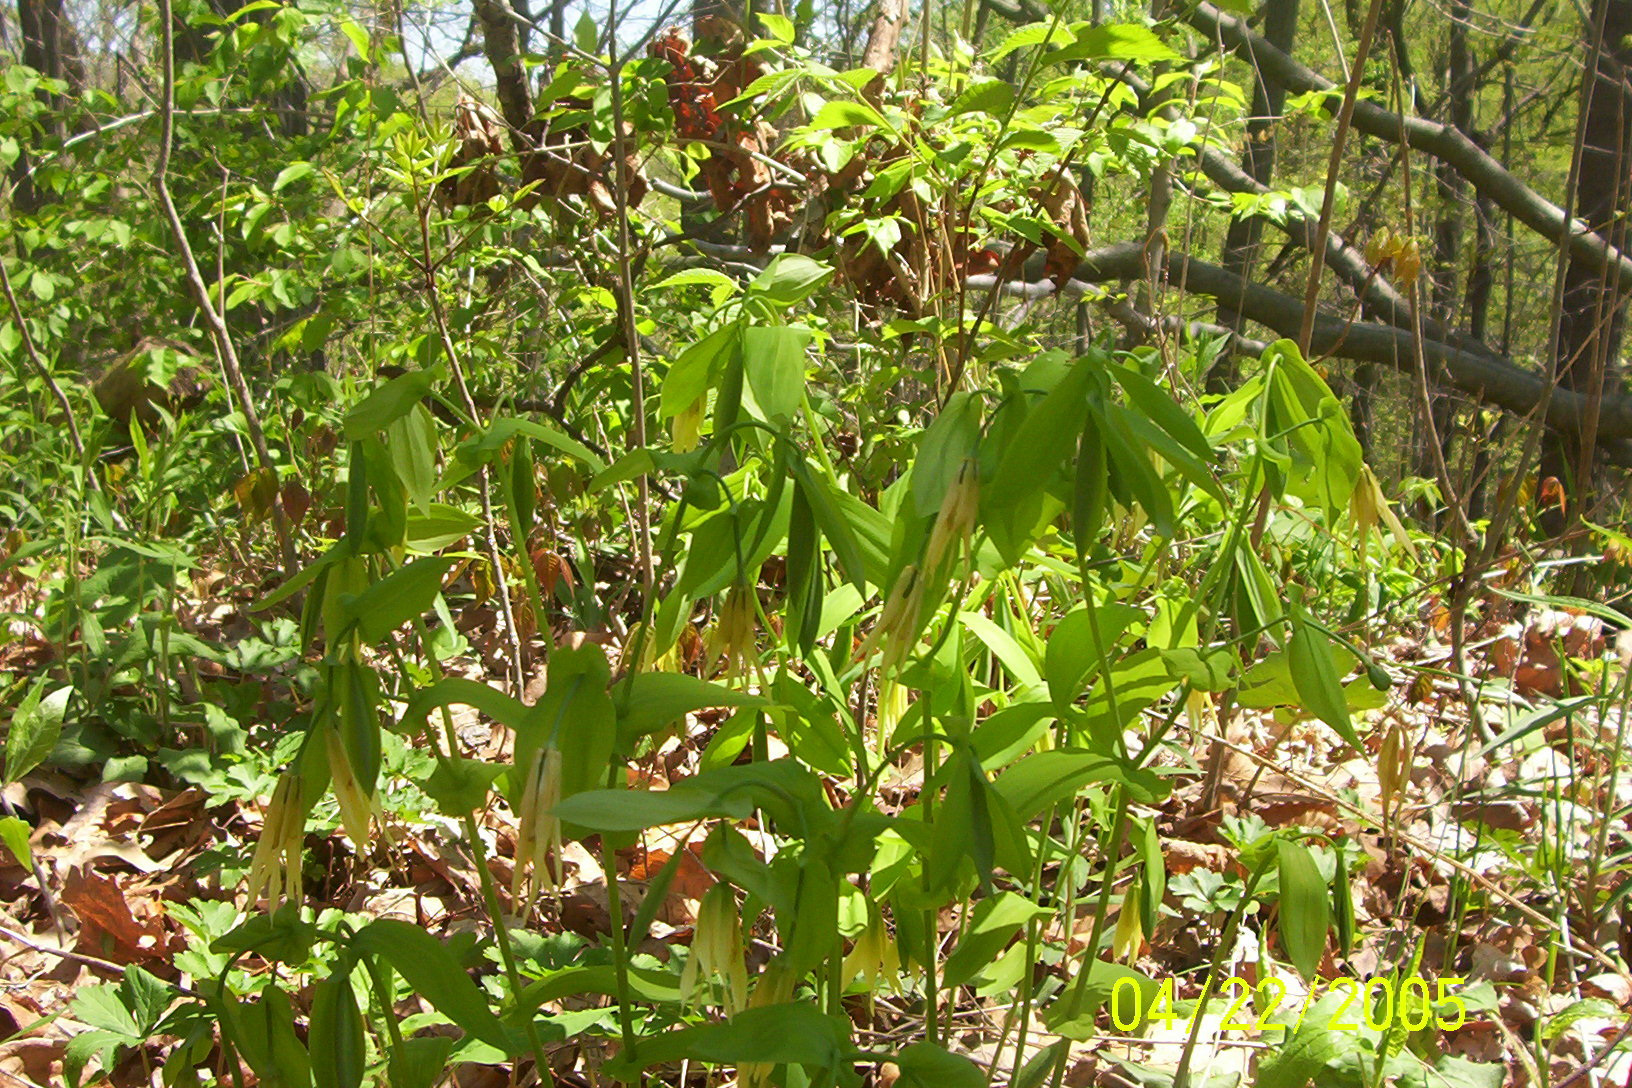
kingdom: Plantae
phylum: Tracheophyta
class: Liliopsida
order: Liliales
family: Colchicaceae
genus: Uvularia
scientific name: Uvularia grandiflora
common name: Bellwort
